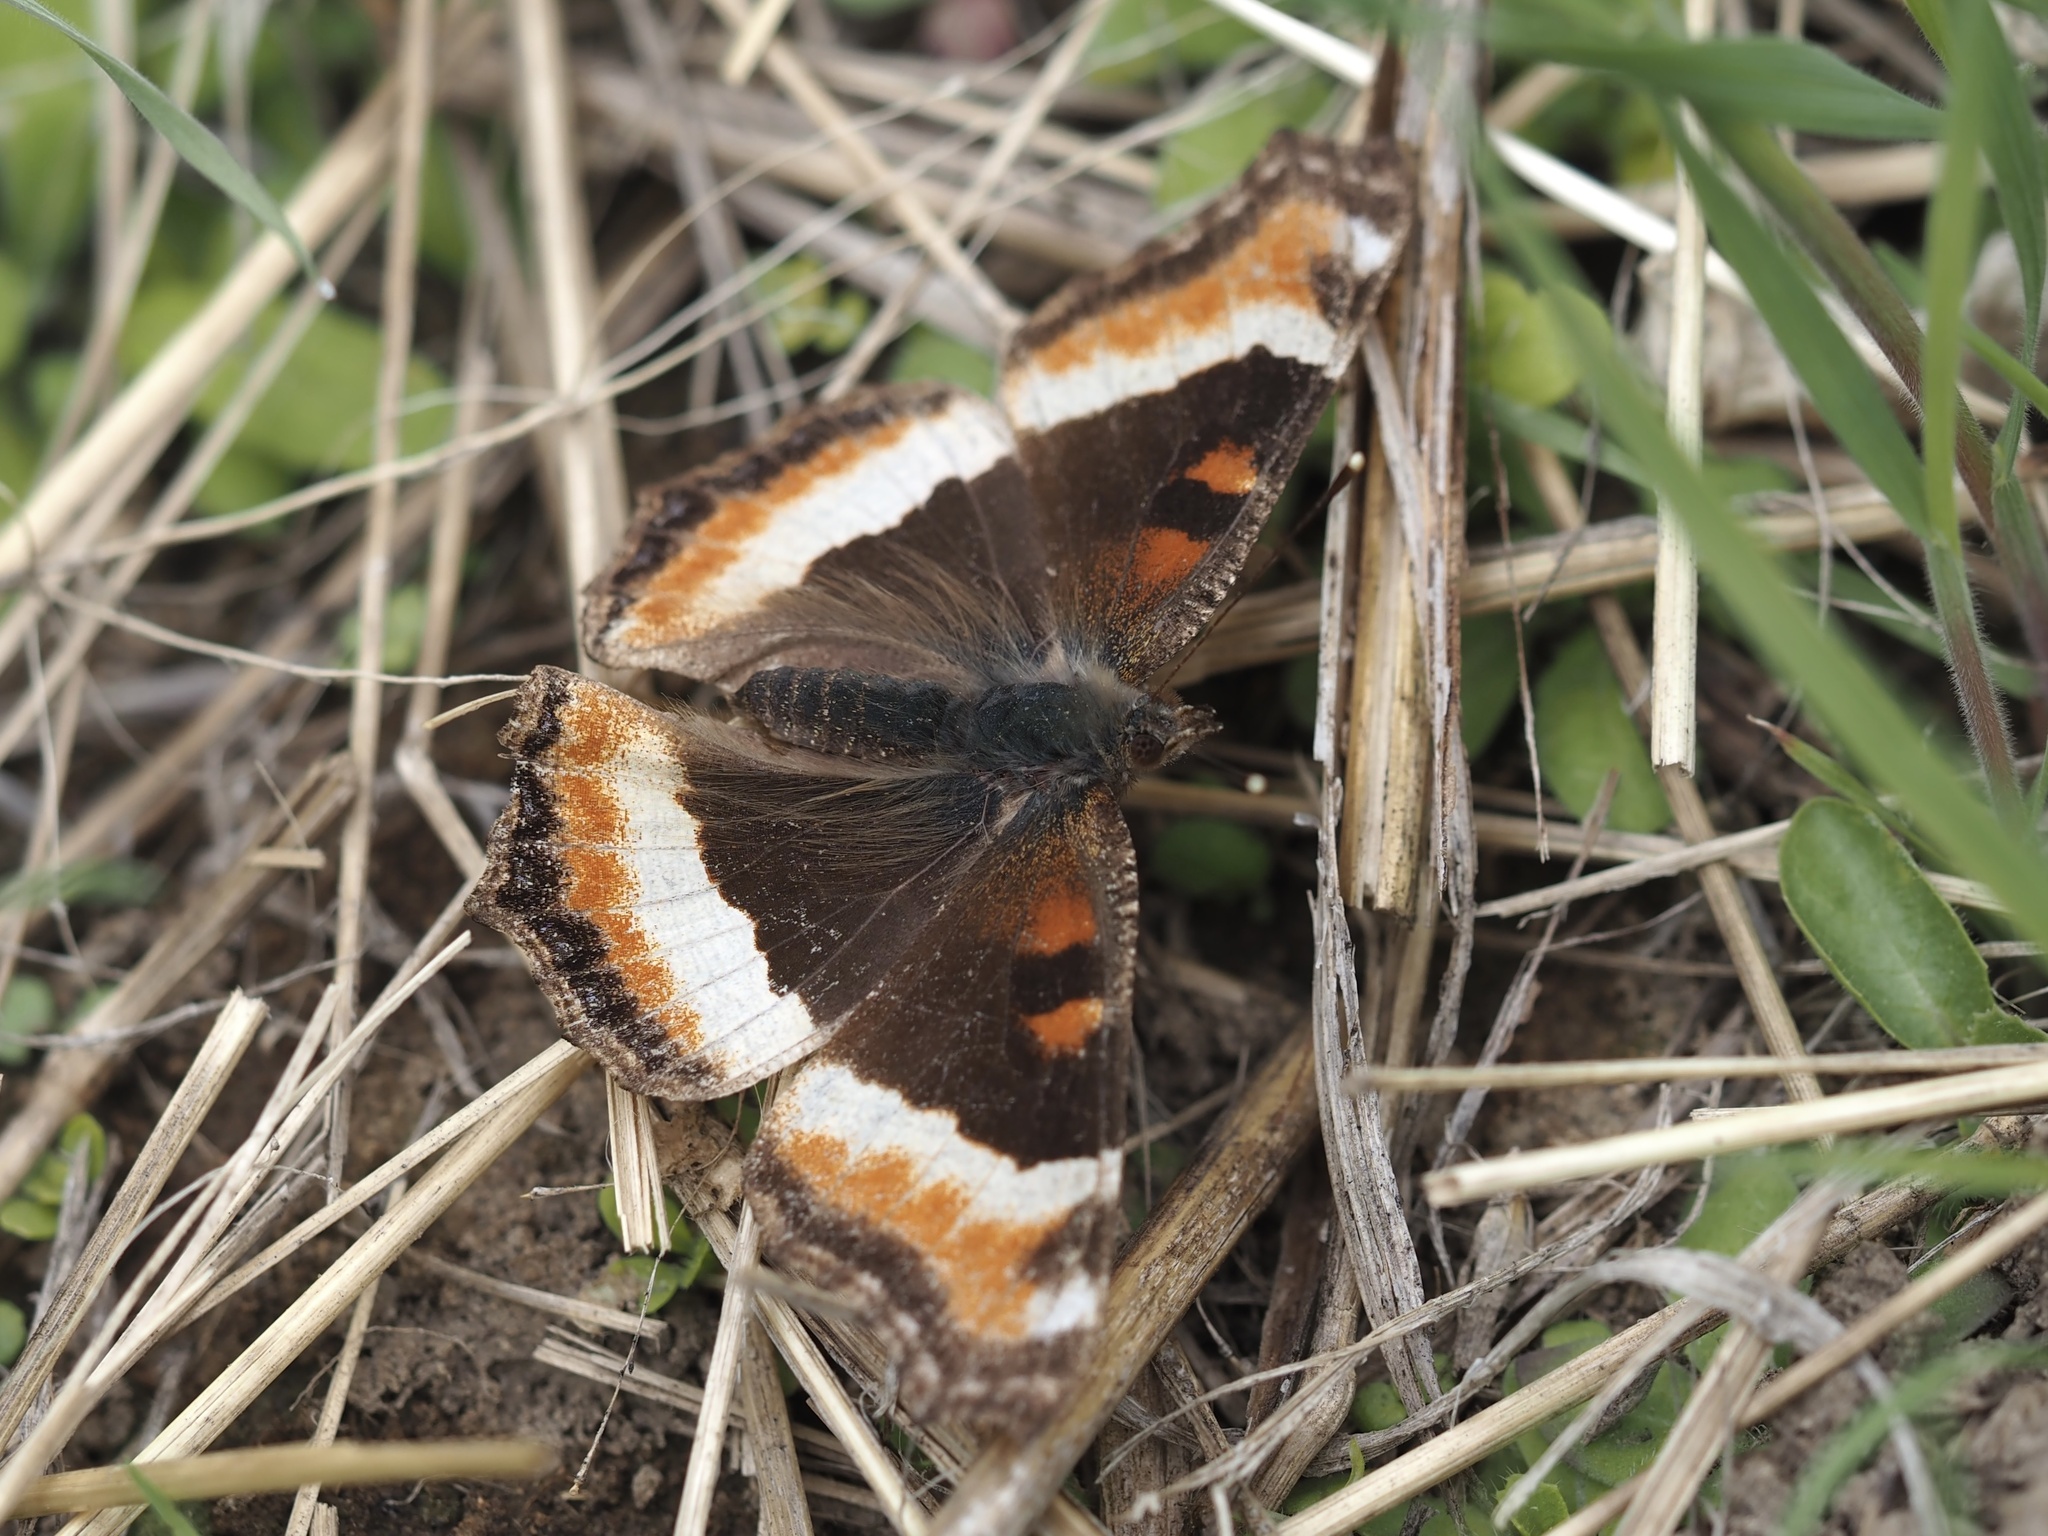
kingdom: Animalia
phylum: Arthropoda
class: Insecta
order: Lepidoptera
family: Nymphalidae
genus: Aglais
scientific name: Aglais milberti
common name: Milbert's tortoiseshell
